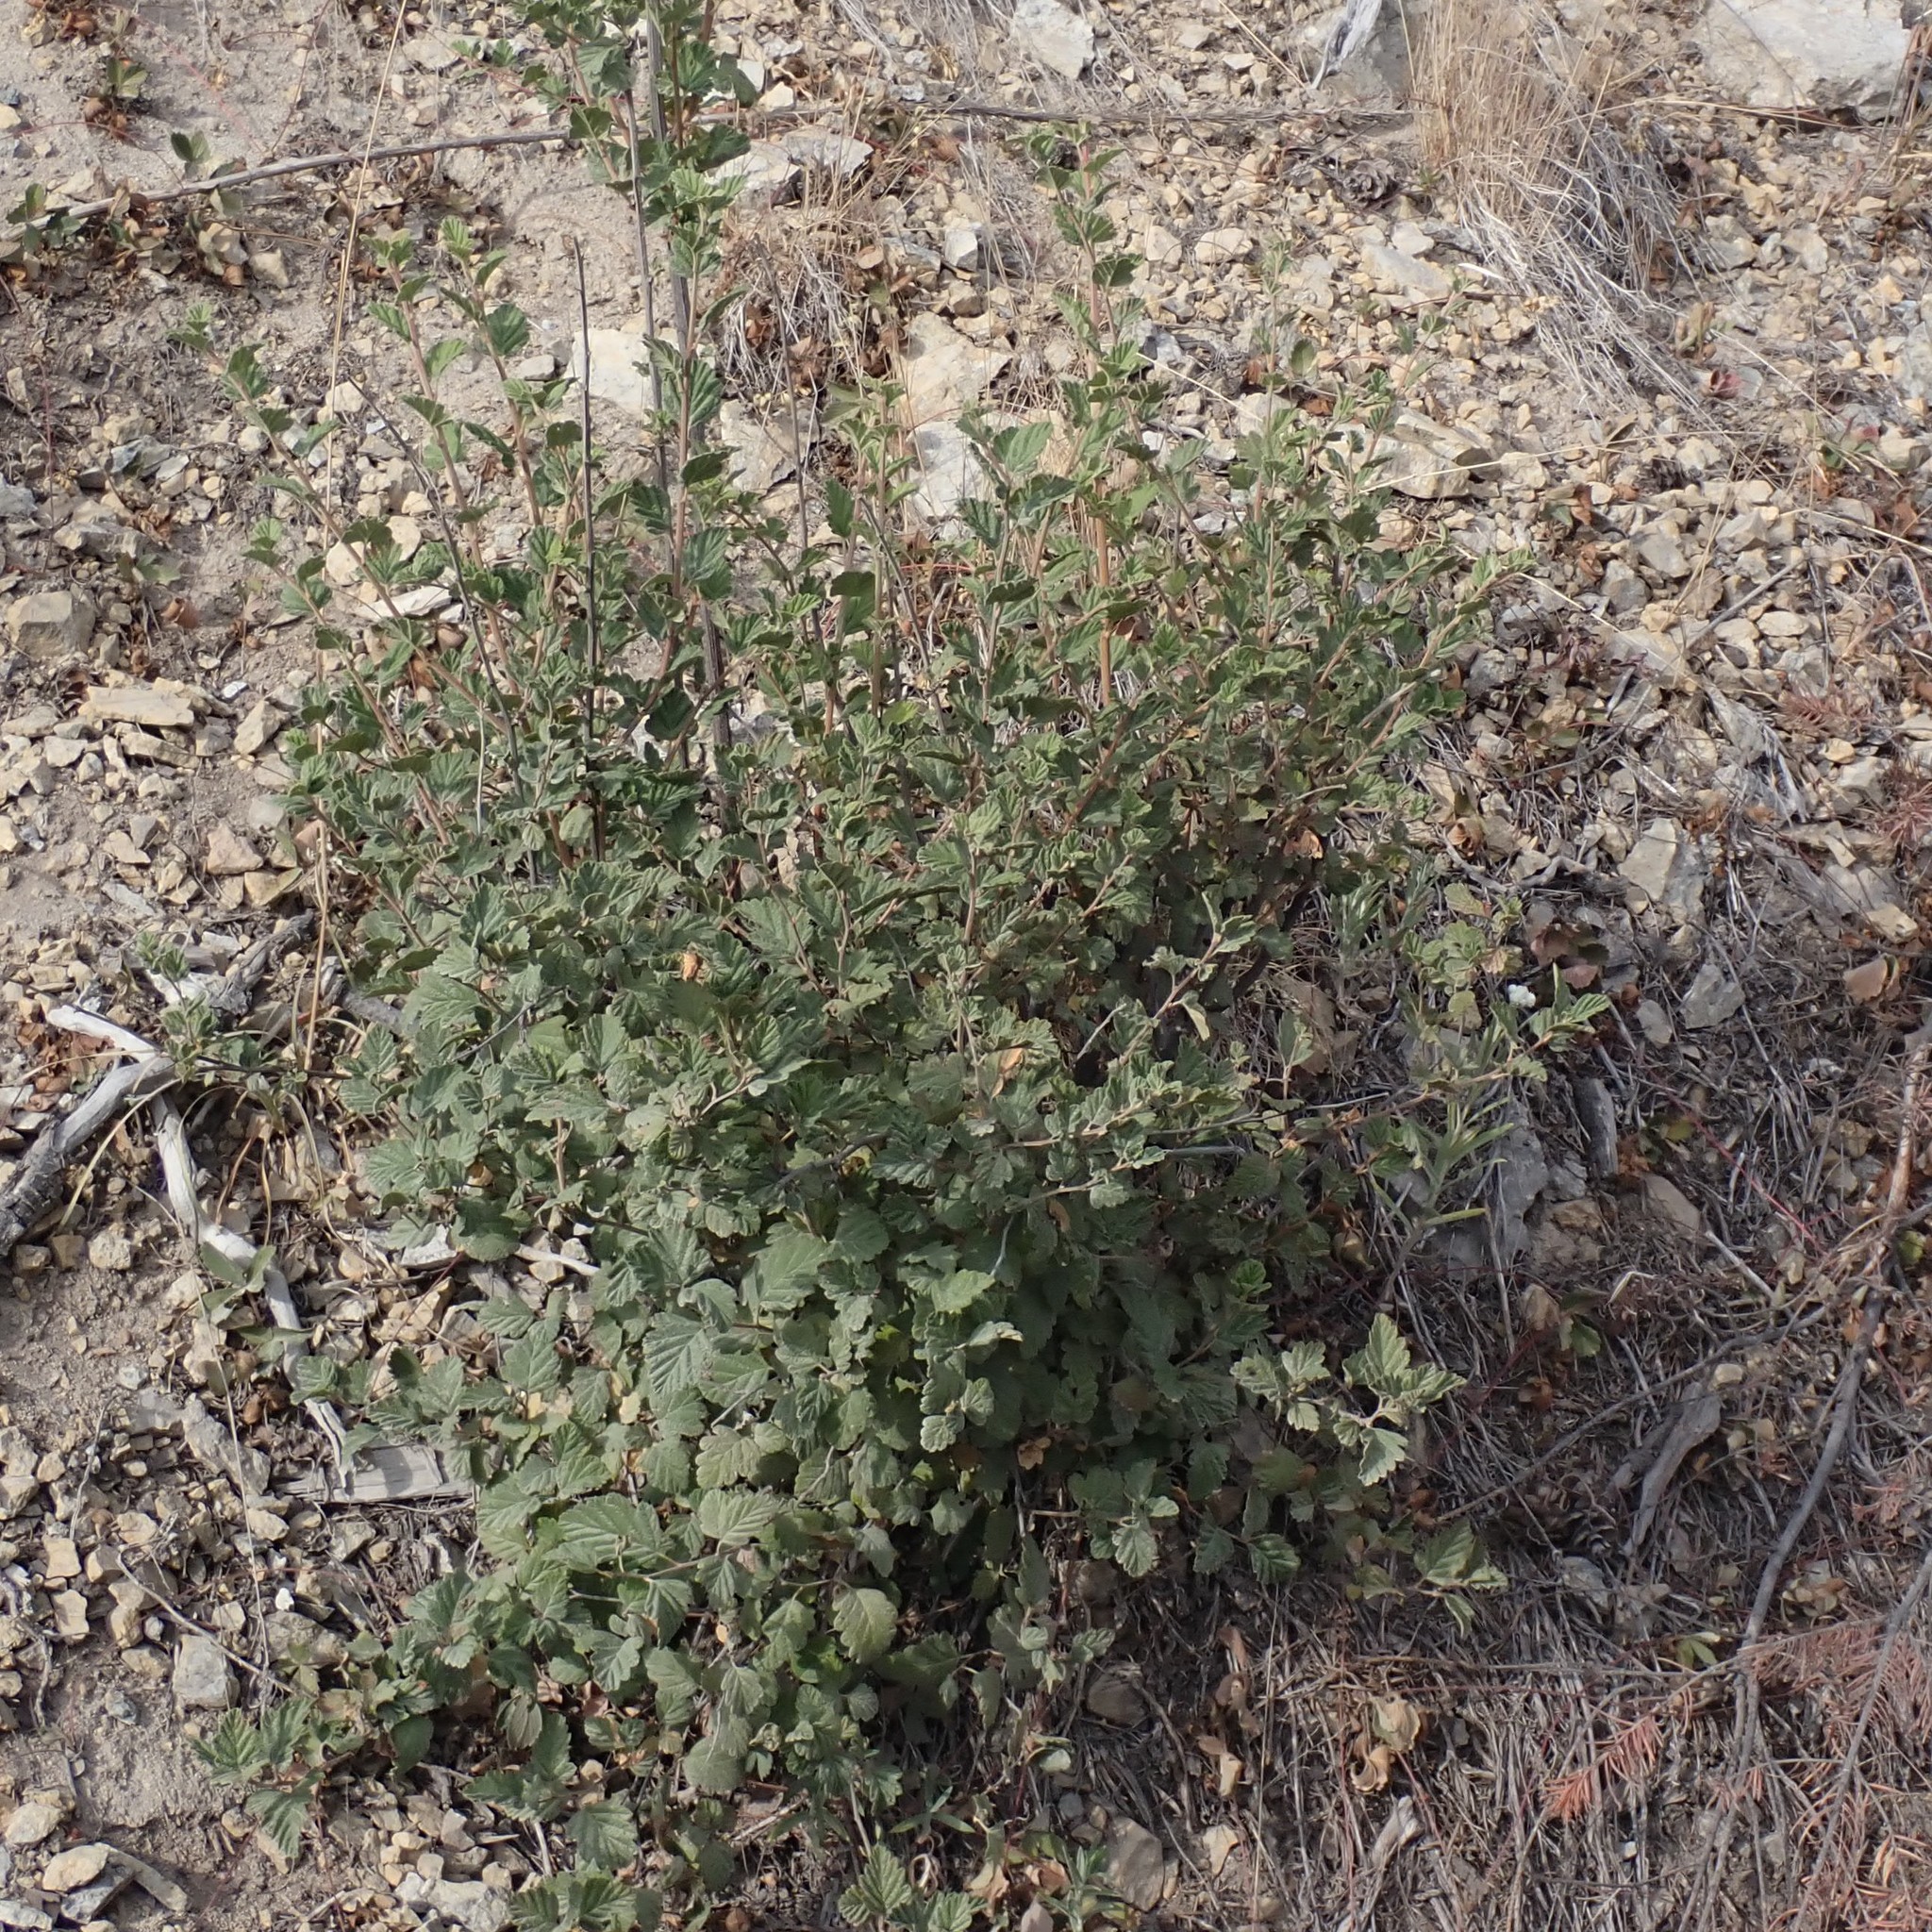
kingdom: Plantae
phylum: Tracheophyta
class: Magnoliopsida
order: Rosales
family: Rosaceae
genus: Holodiscus
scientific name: Holodiscus discolor
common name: Oceanspray
